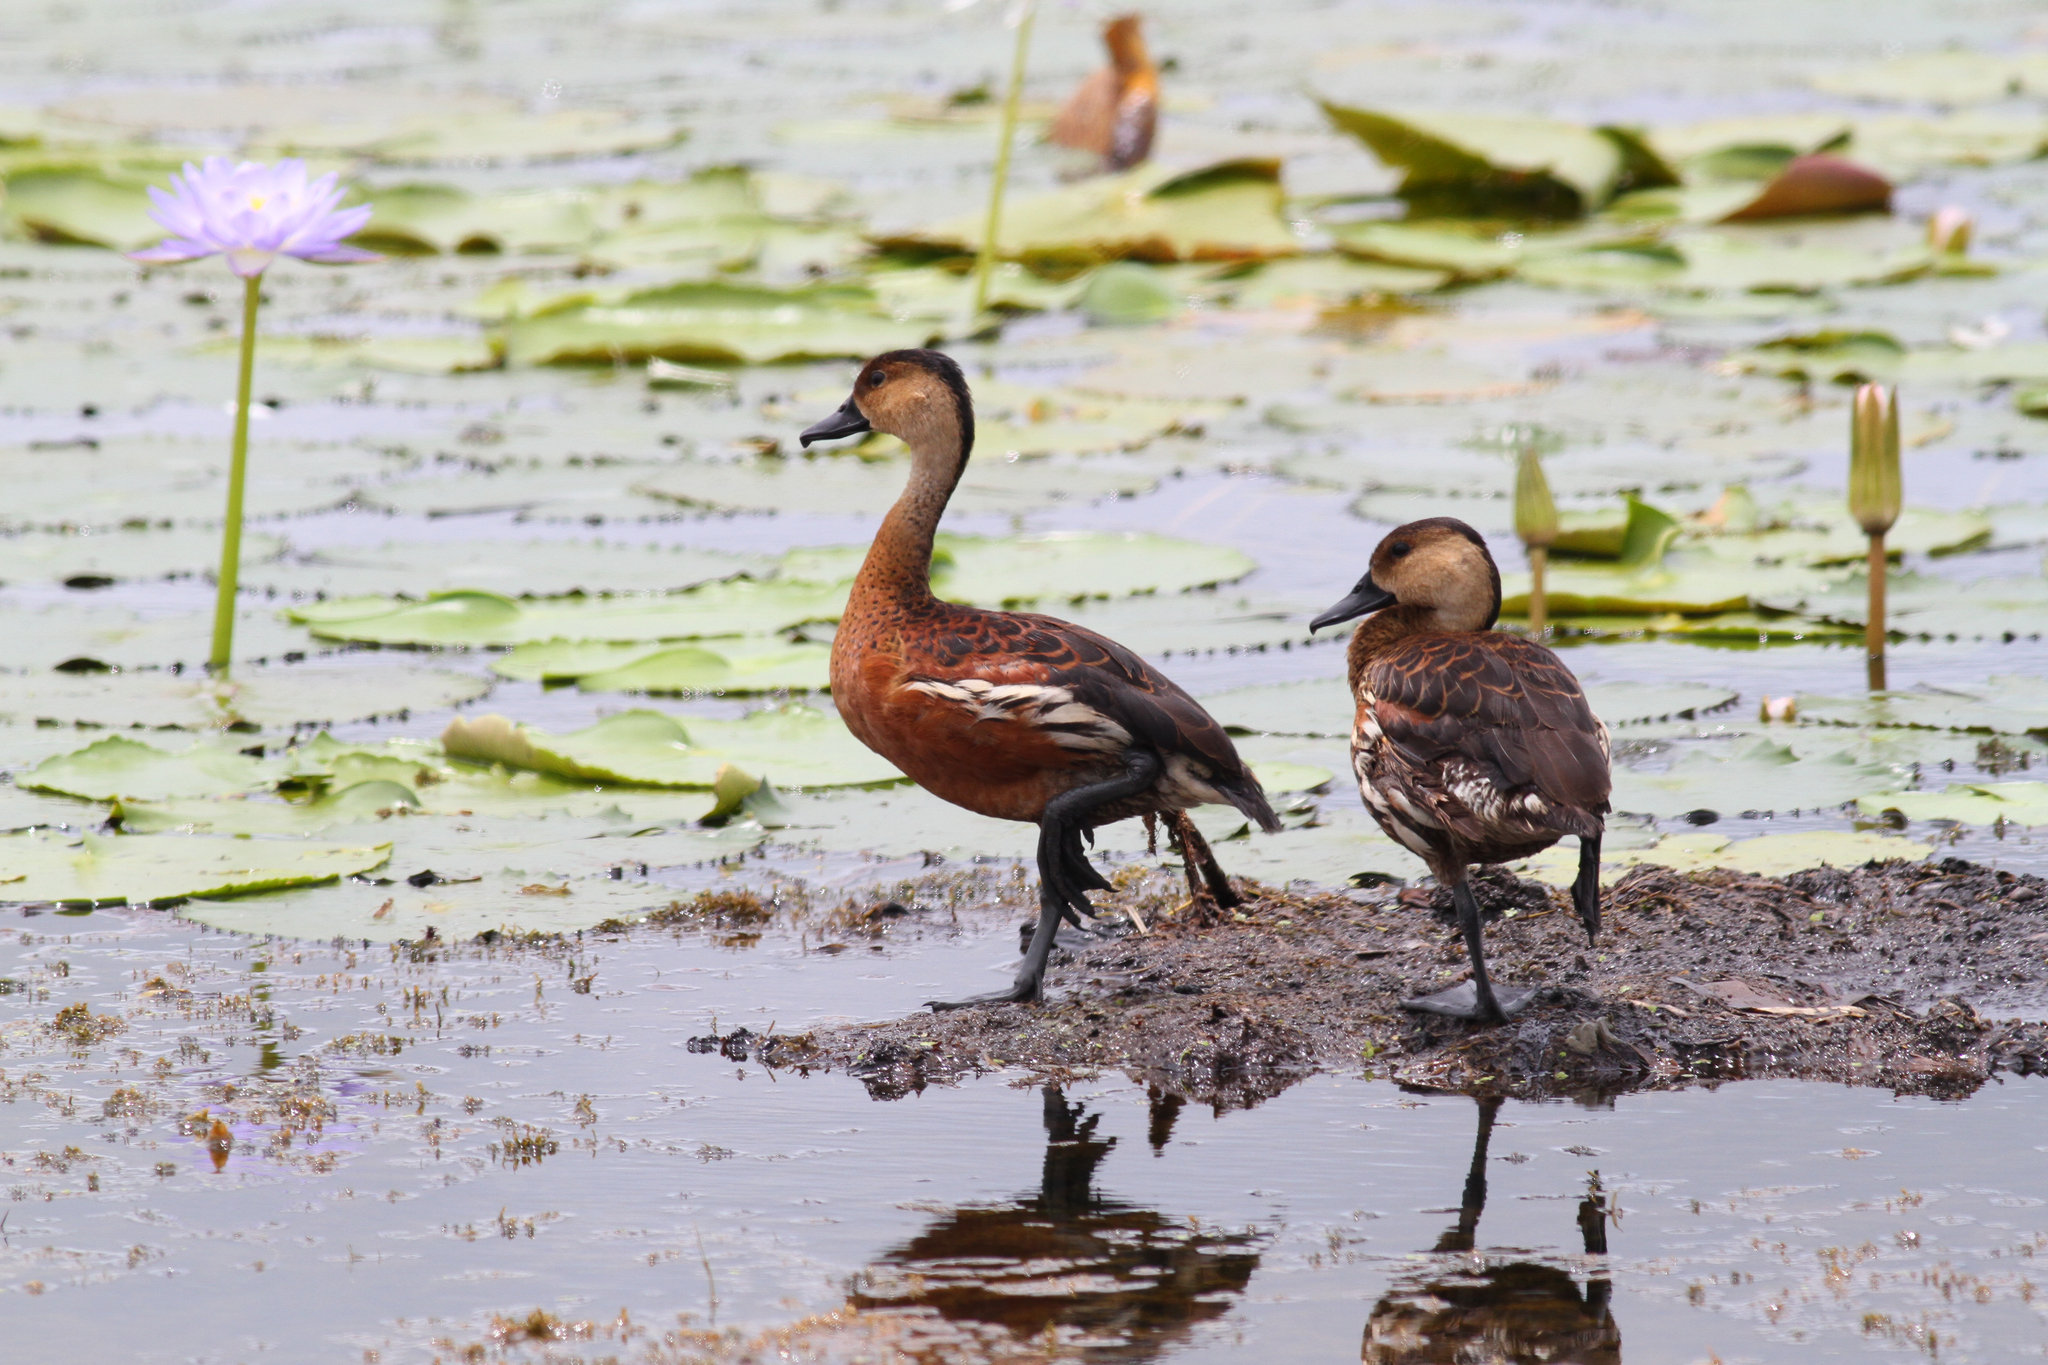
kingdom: Animalia
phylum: Chordata
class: Aves
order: Anseriformes
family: Anatidae
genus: Dendrocygna
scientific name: Dendrocygna arcuata
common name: Wandering whistling-duck
